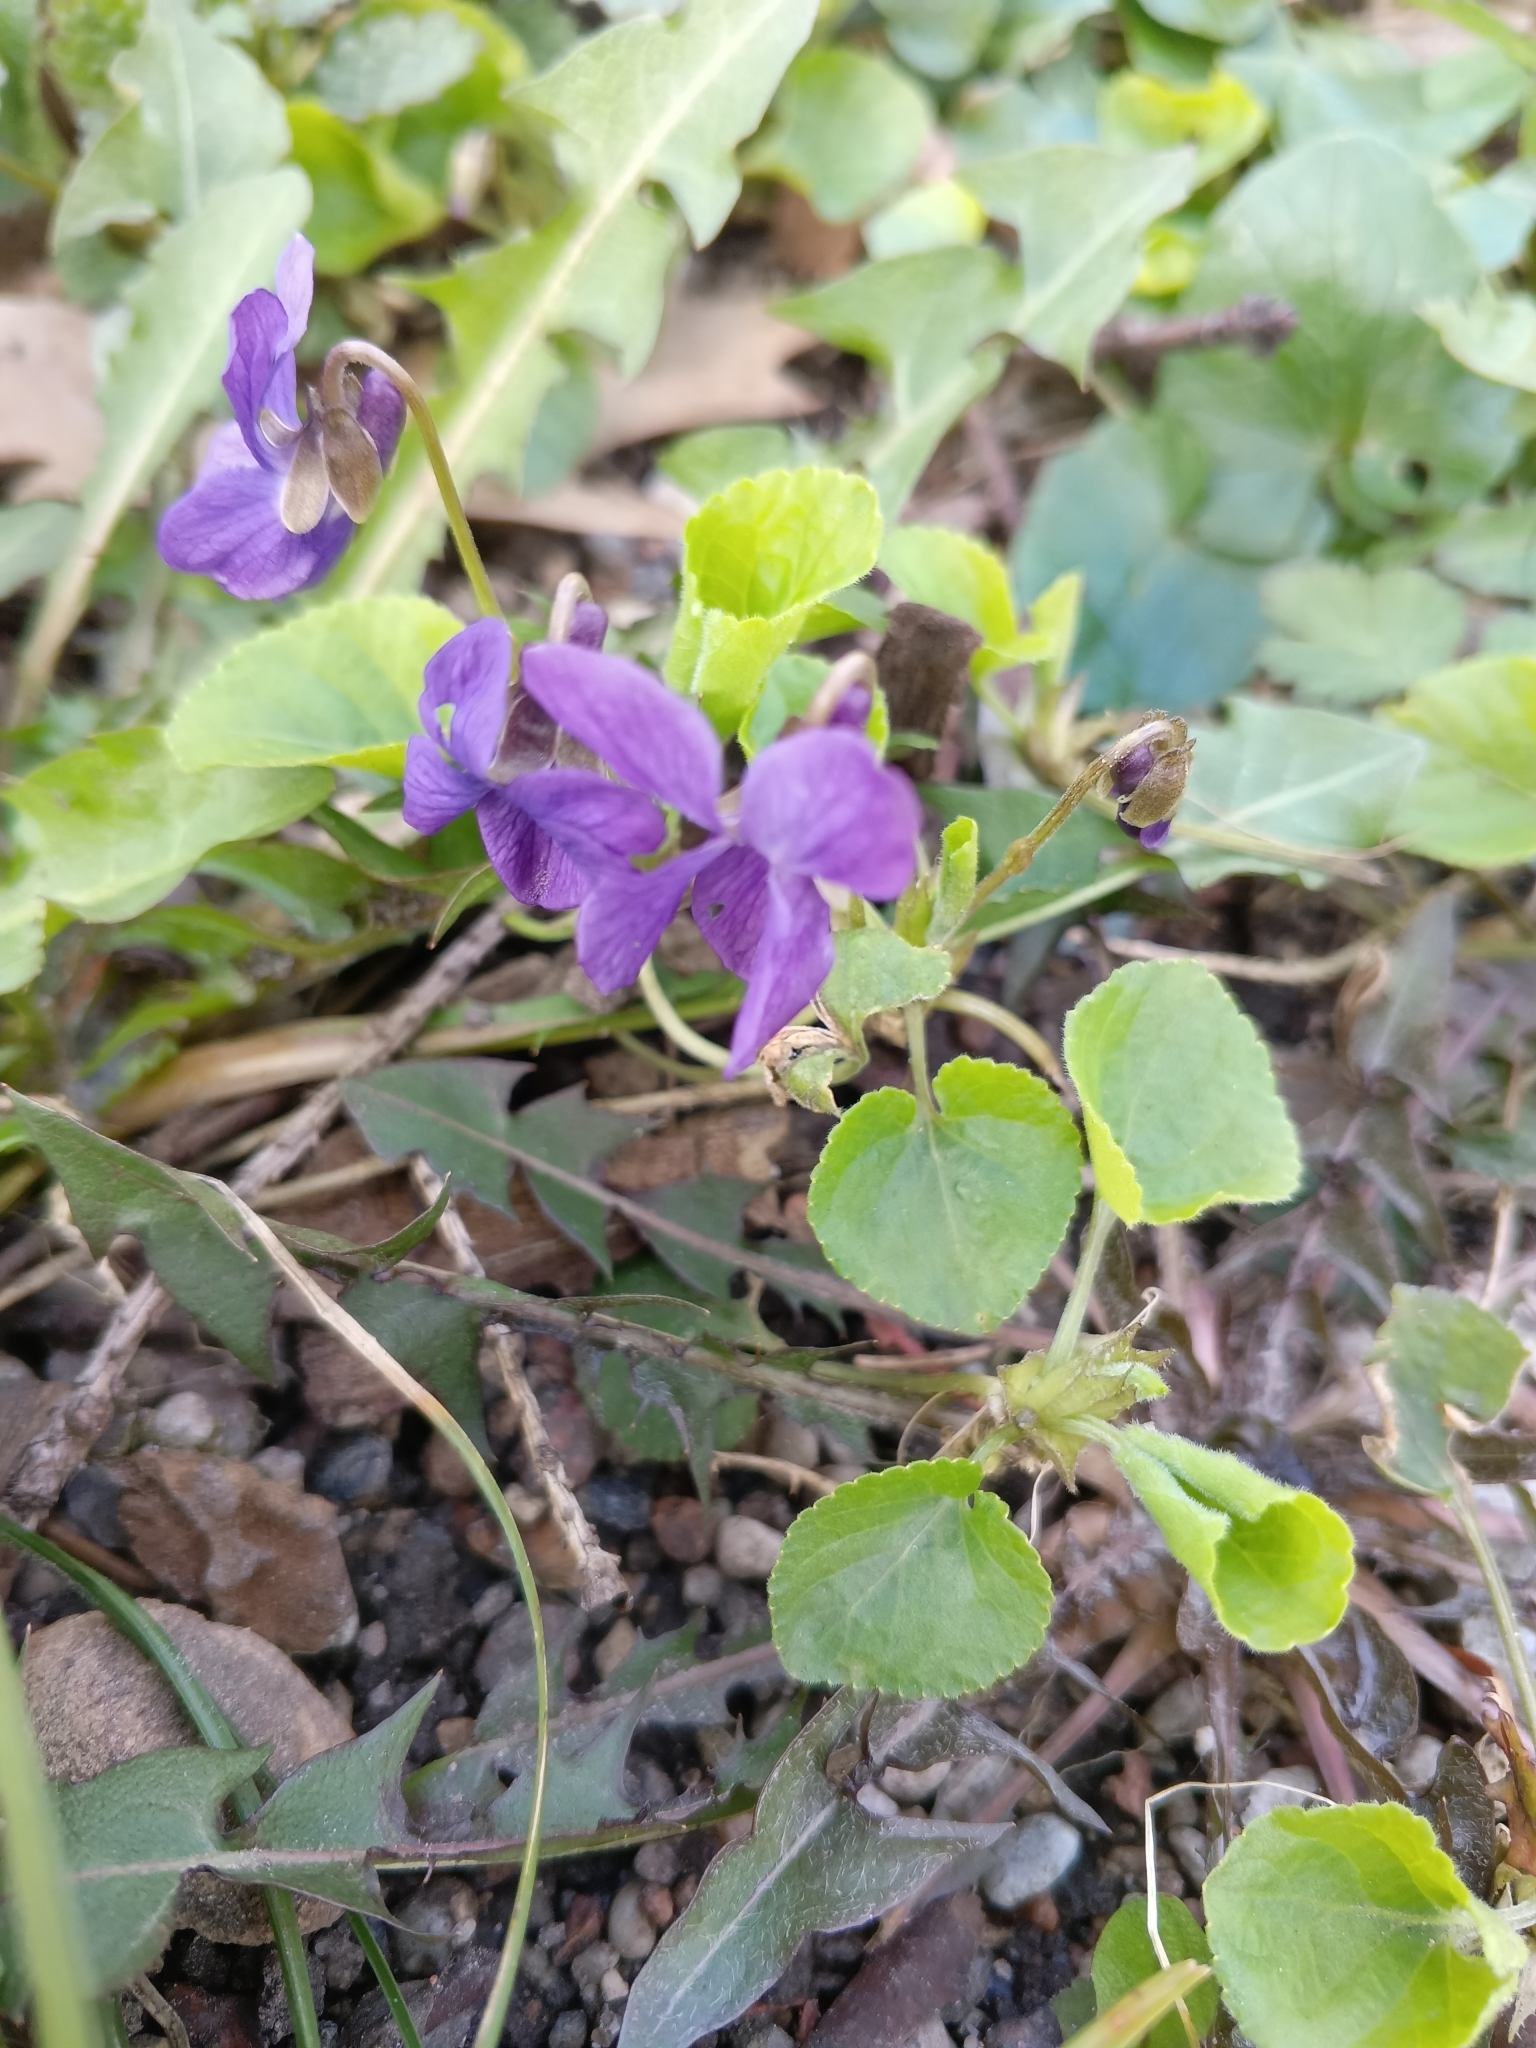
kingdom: Plantae
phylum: Tracheophyta
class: Magnoliopsida
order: Malpighiales
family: Violaceae
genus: Viola
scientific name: Viola odorata
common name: Sweet violet
